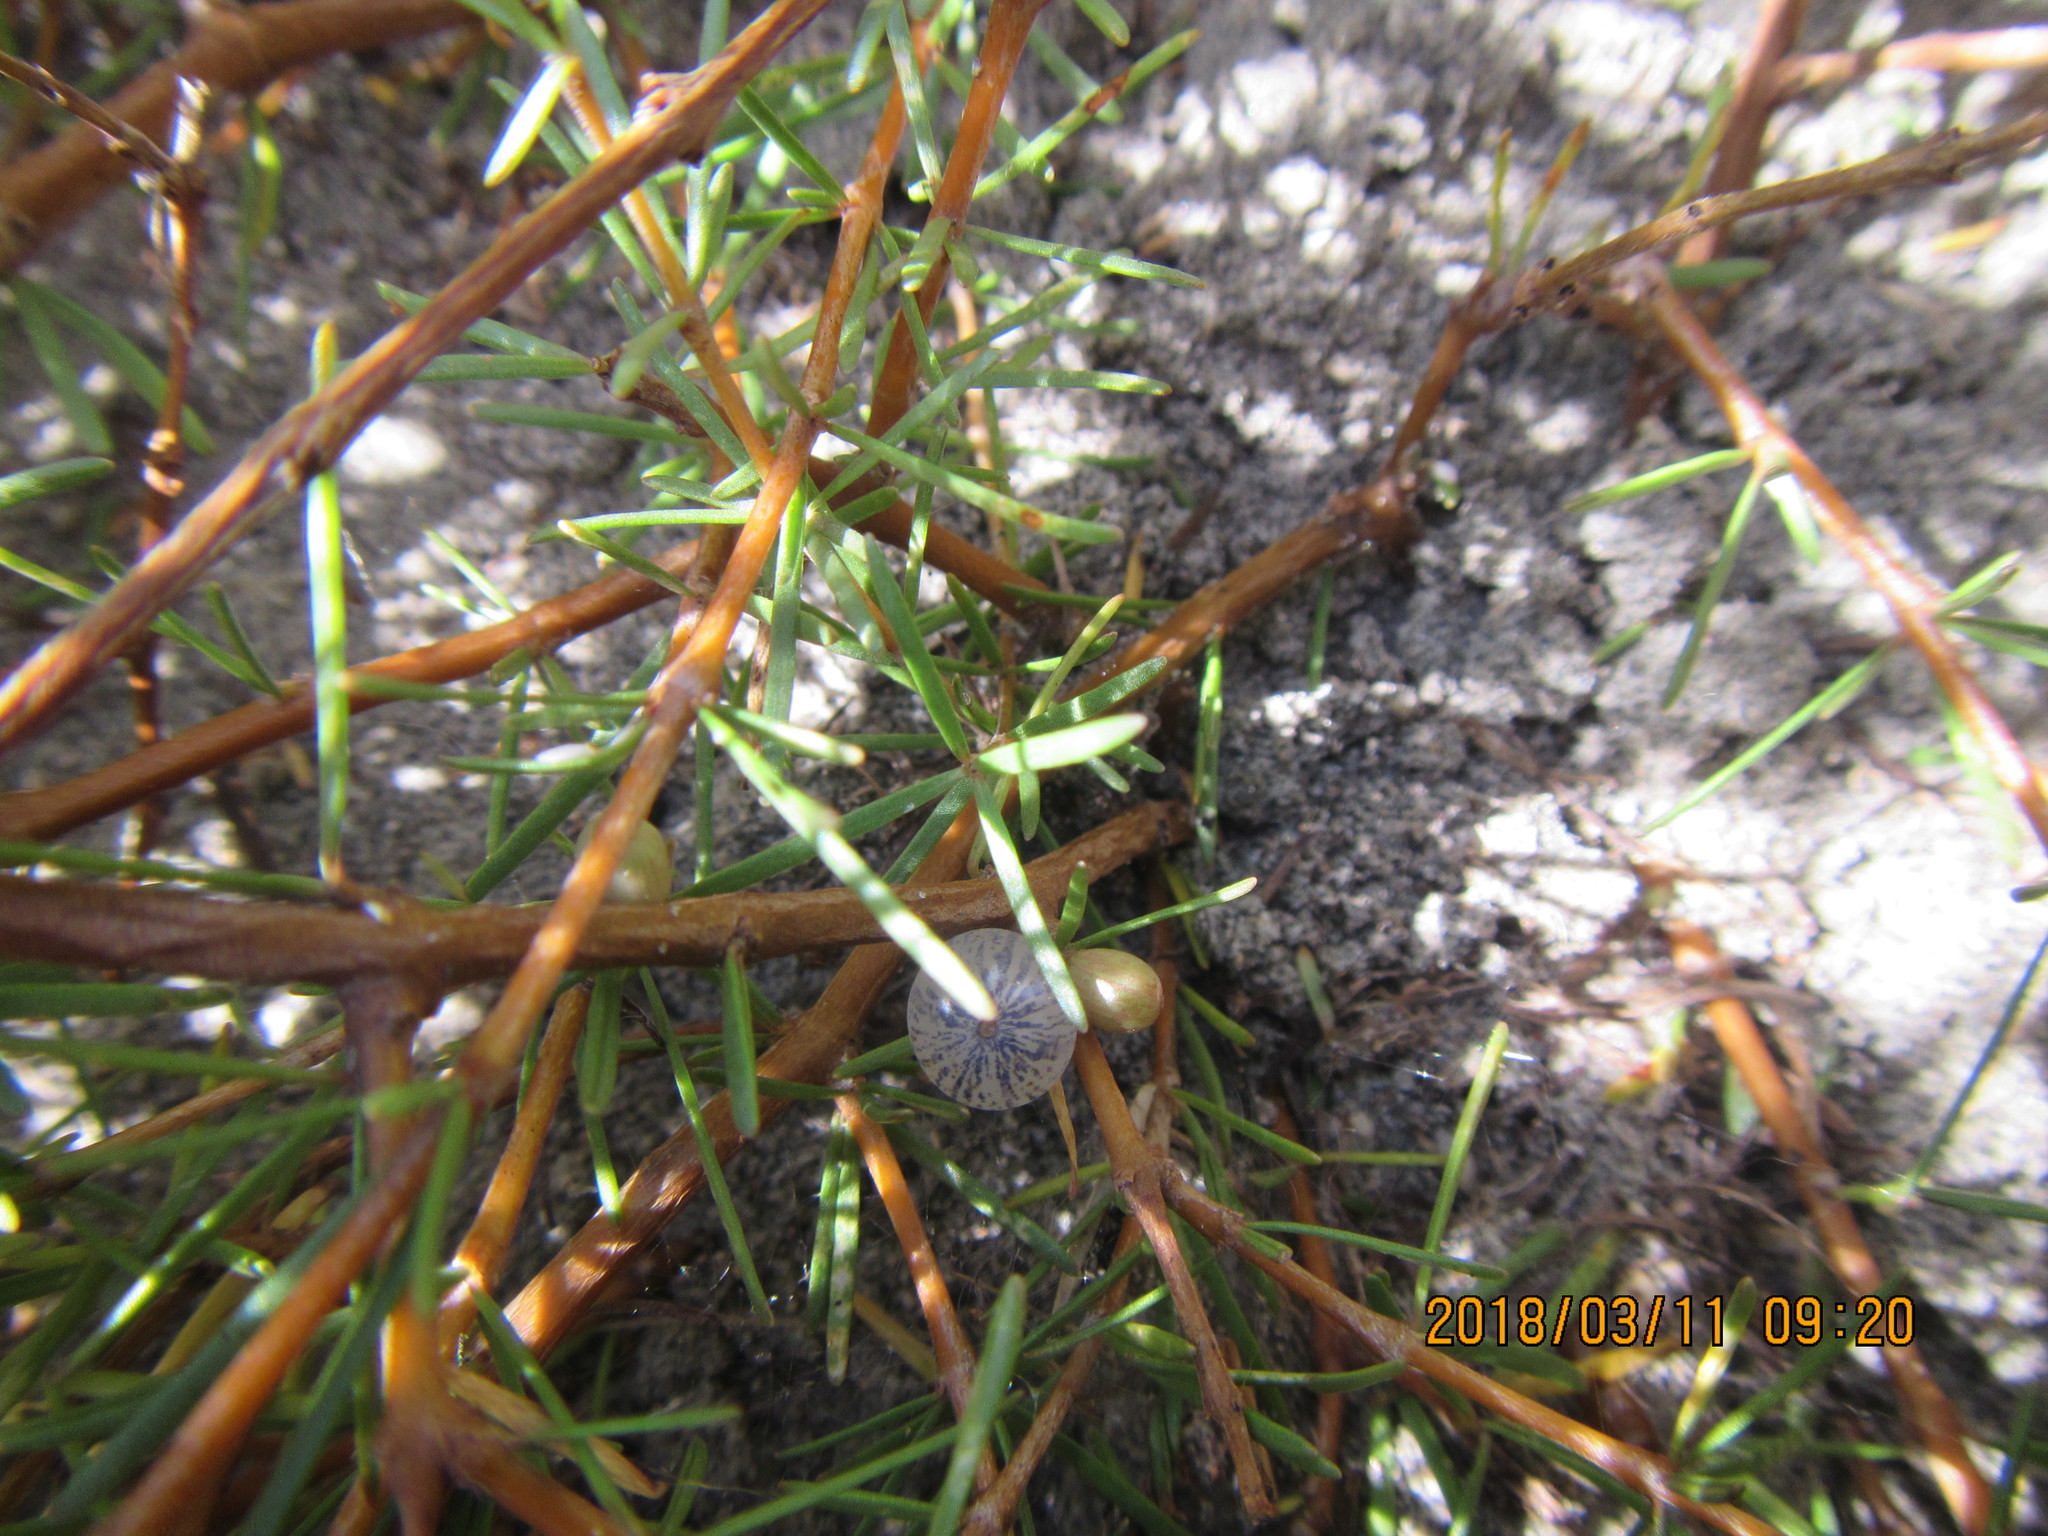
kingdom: Plantae
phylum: Tracheophyta
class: Magnoliopsida
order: Gentianales
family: Rubiaceae
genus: Coprosma
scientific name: Coprosma acerosa
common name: Sand coprosma
